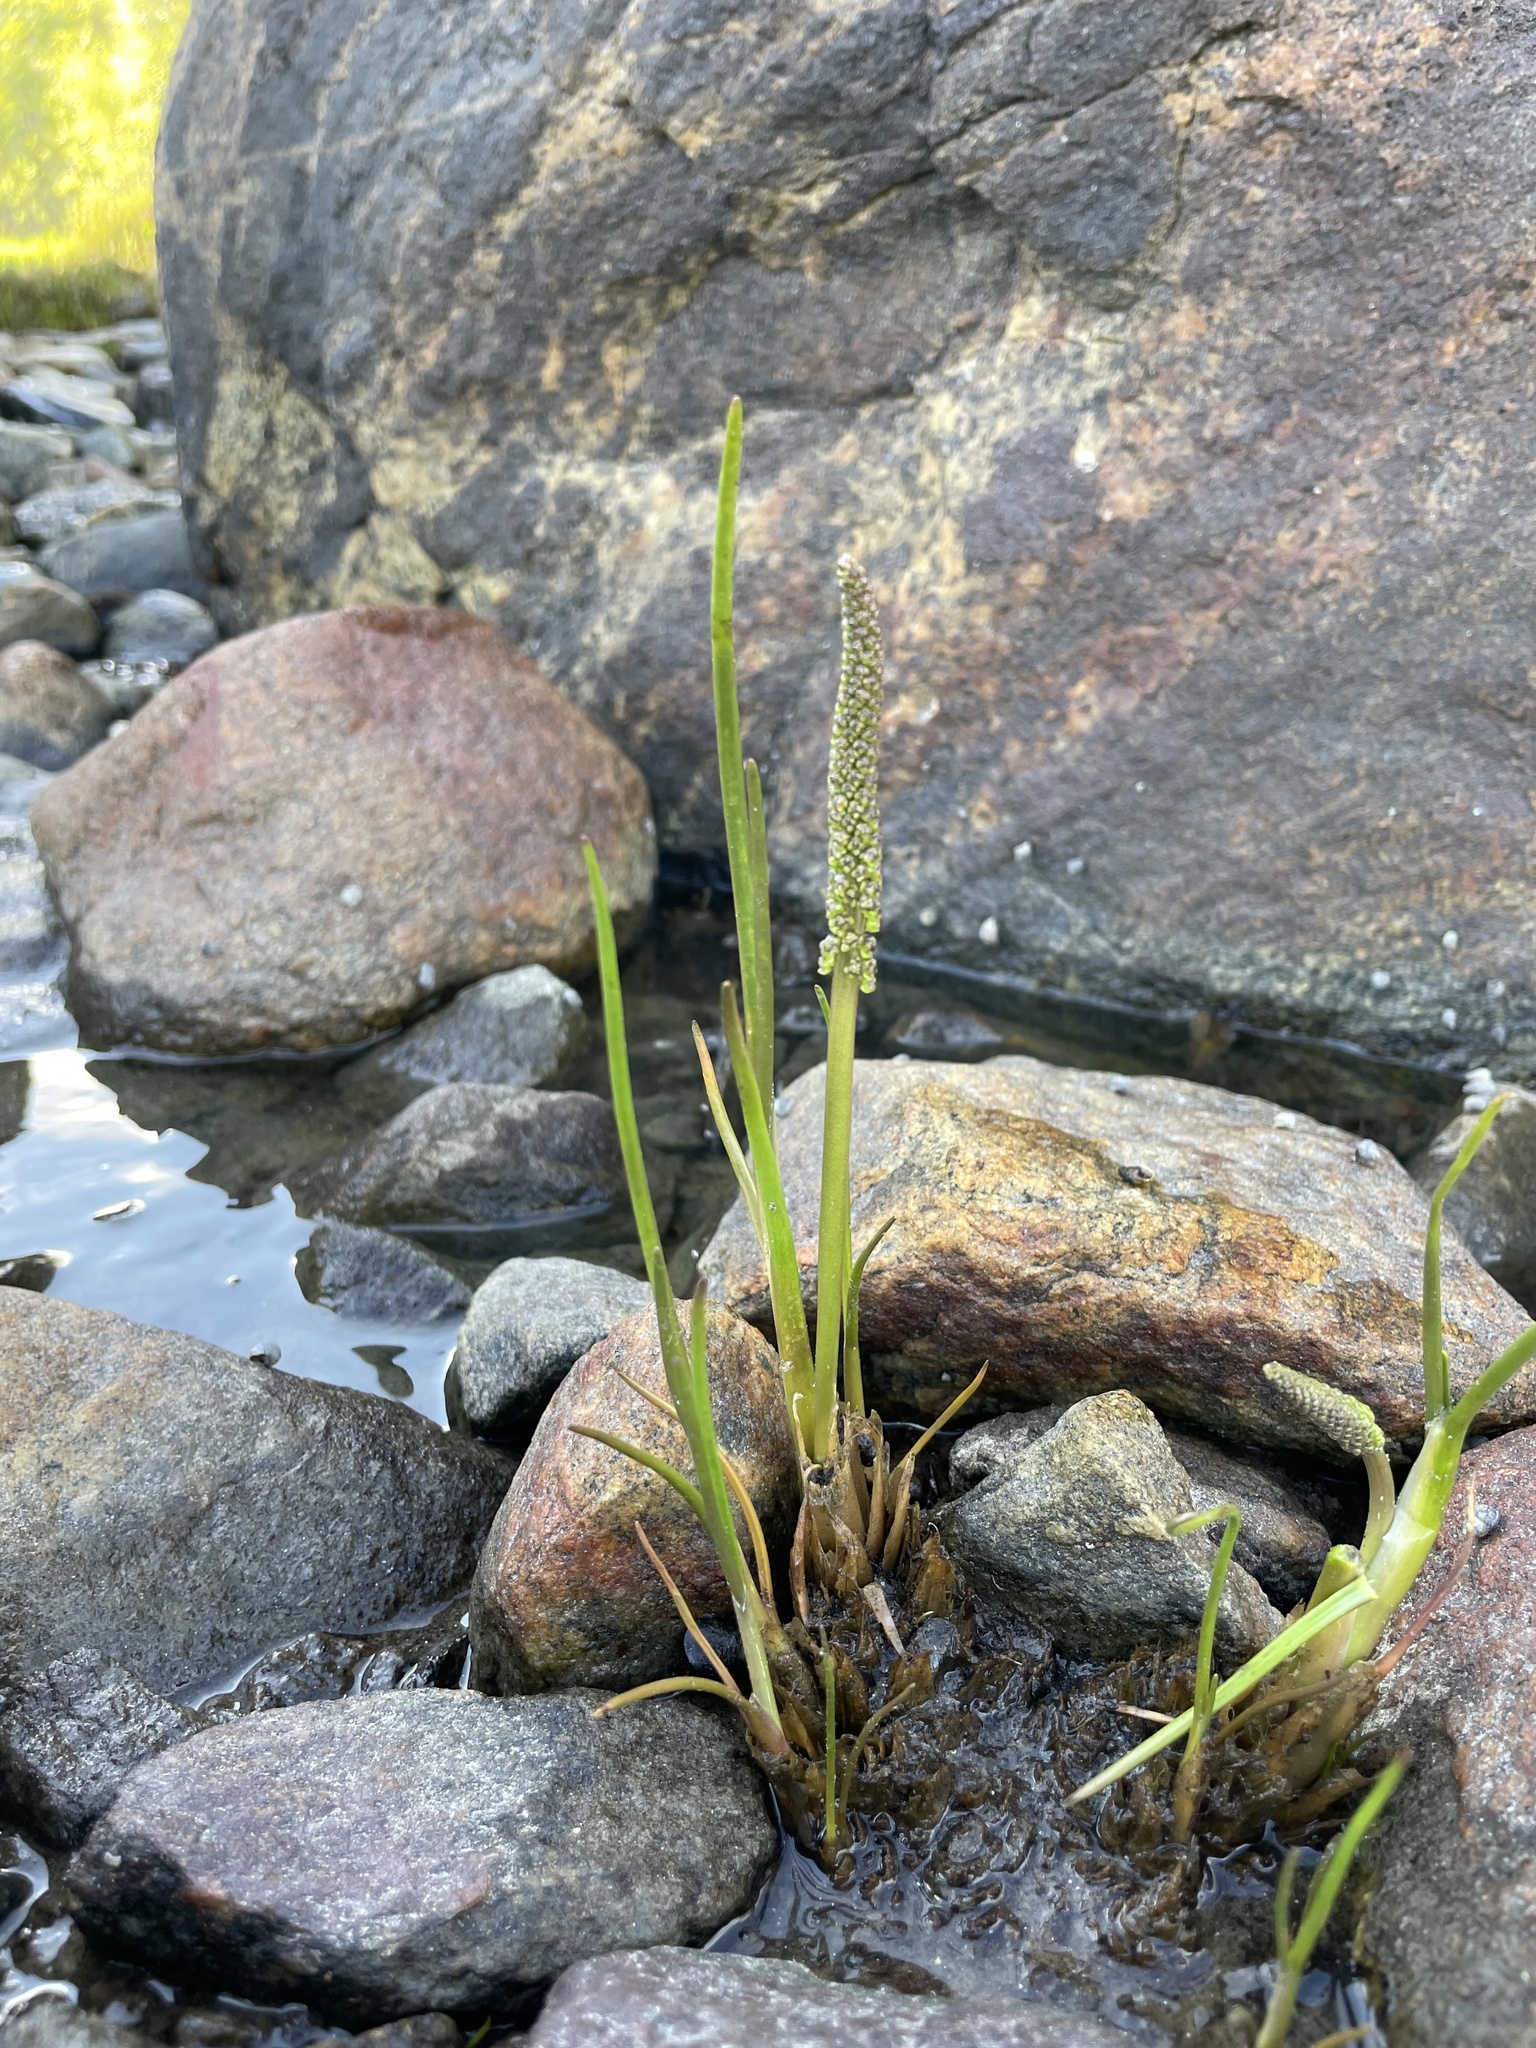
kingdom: Plantae
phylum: Tracheophyta
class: Liliopsida
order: Alismatales
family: Juncaginaceae
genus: Triglochin
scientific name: Triglochin maritima
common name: Sea arrowgrass
